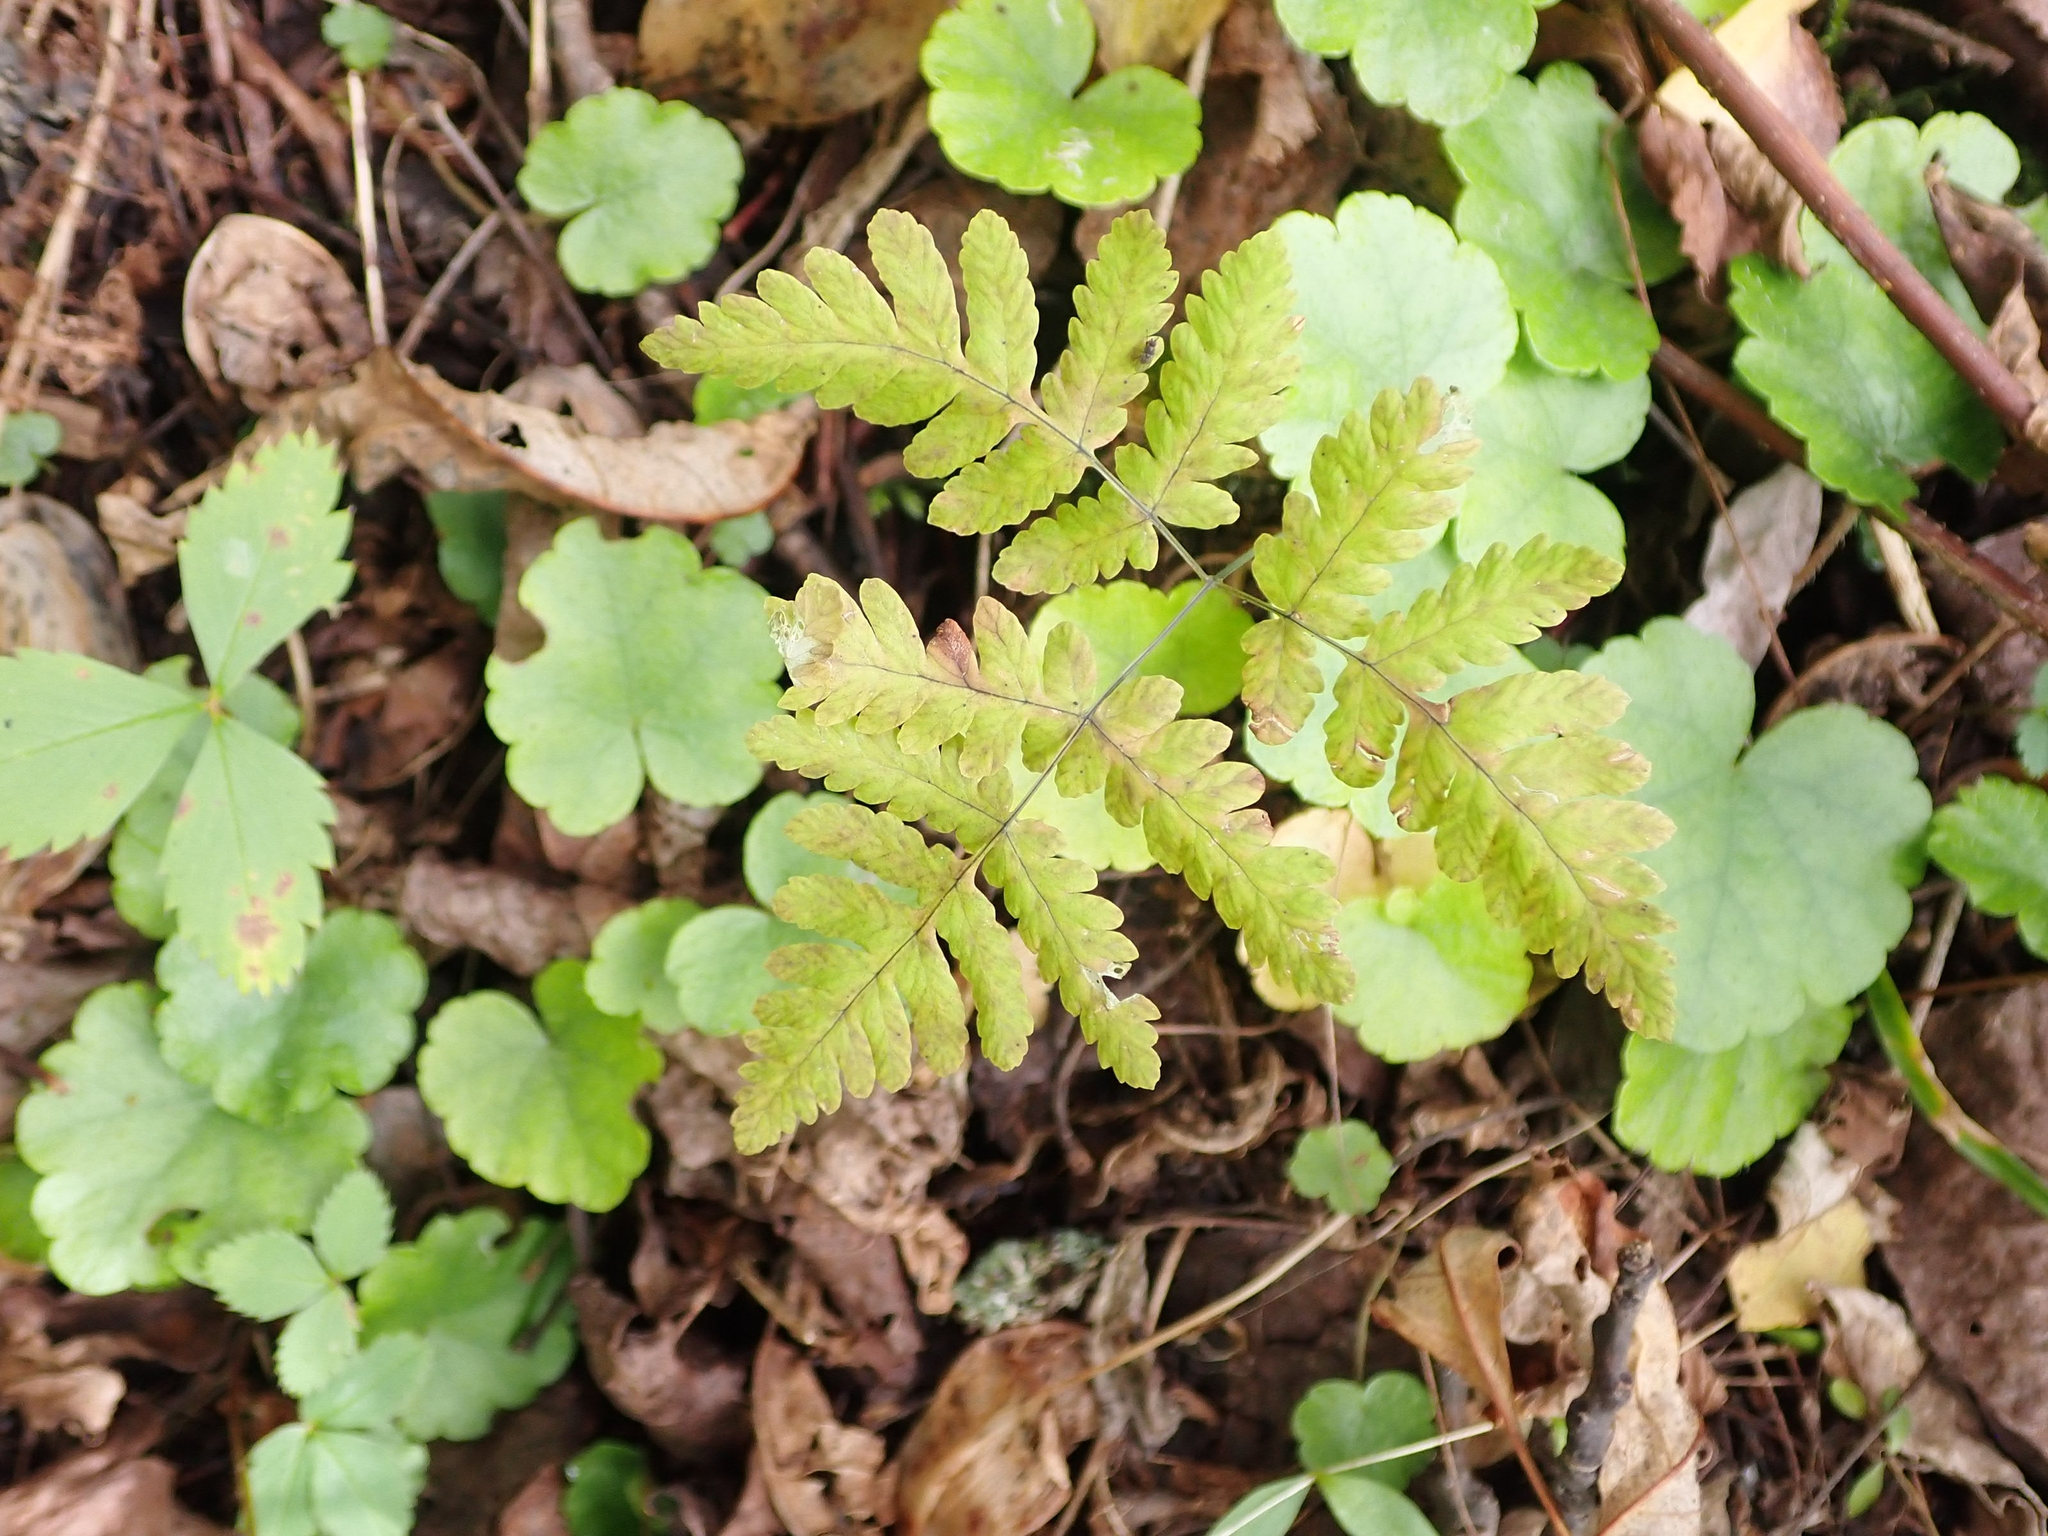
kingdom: Plantae
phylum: Tracheophyta
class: Polypodiopsida
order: Polypodiales
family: Cystopteridaceae
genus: Gymnocarpium
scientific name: Gymnocarpium dryopteris
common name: Oak fern
